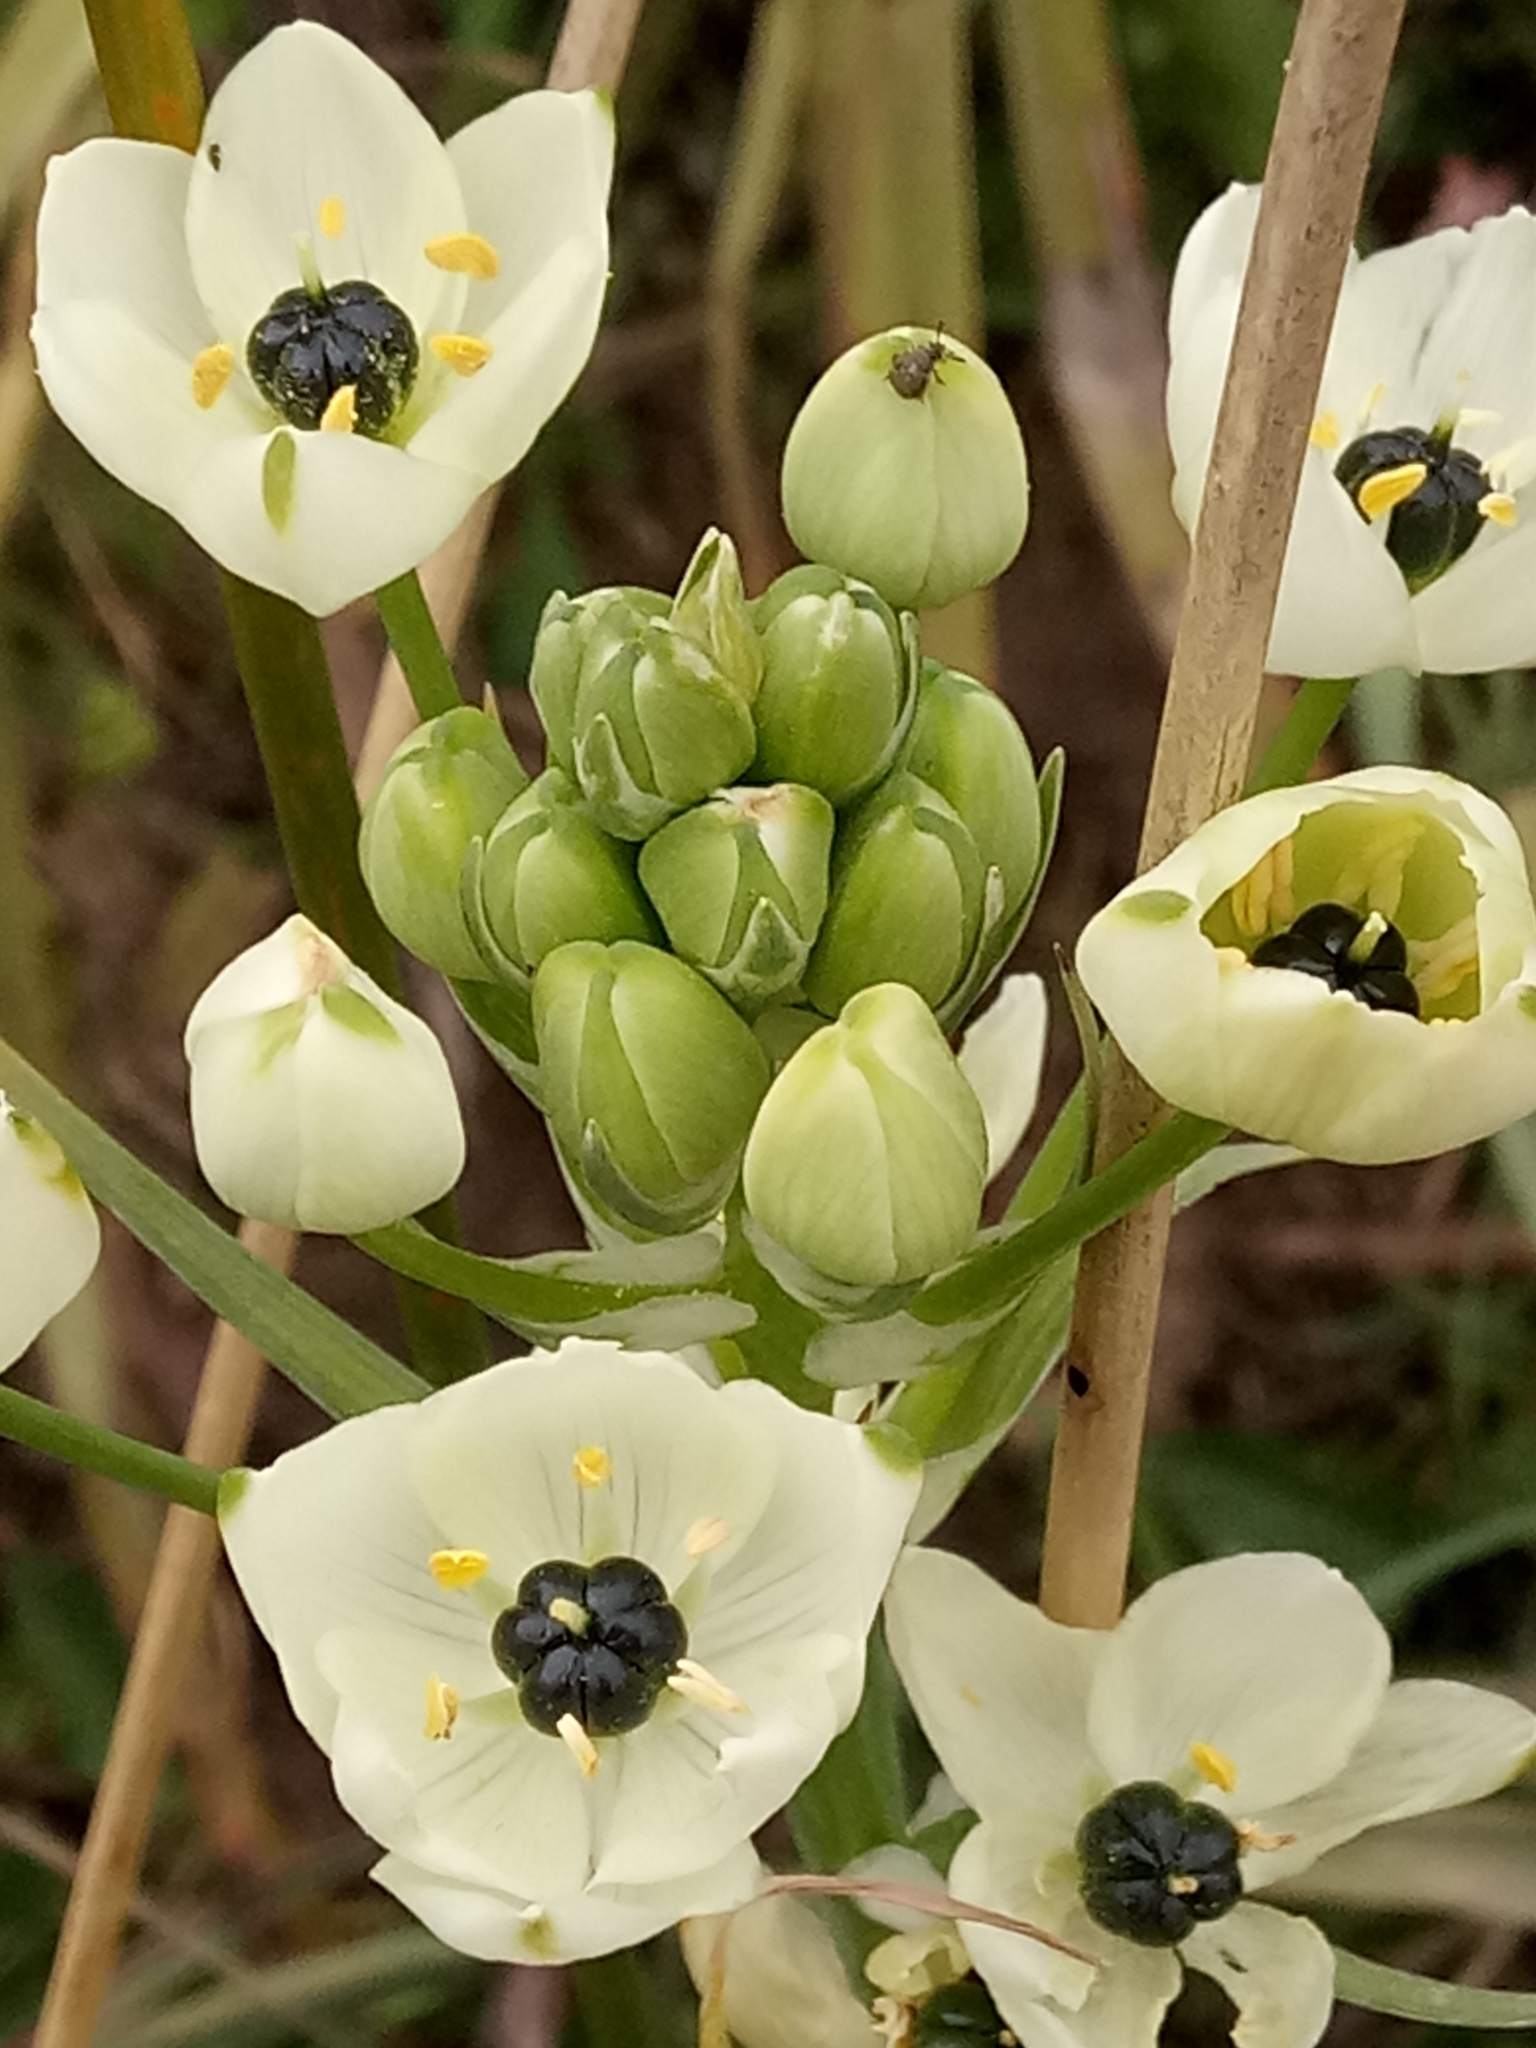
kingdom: Plantae
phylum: Tracheophyta
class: Liliopsida
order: Asparagales
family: Asparagaceae
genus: Ornithogalum
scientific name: Ornithogalum arabicum
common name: Arabian starflower
